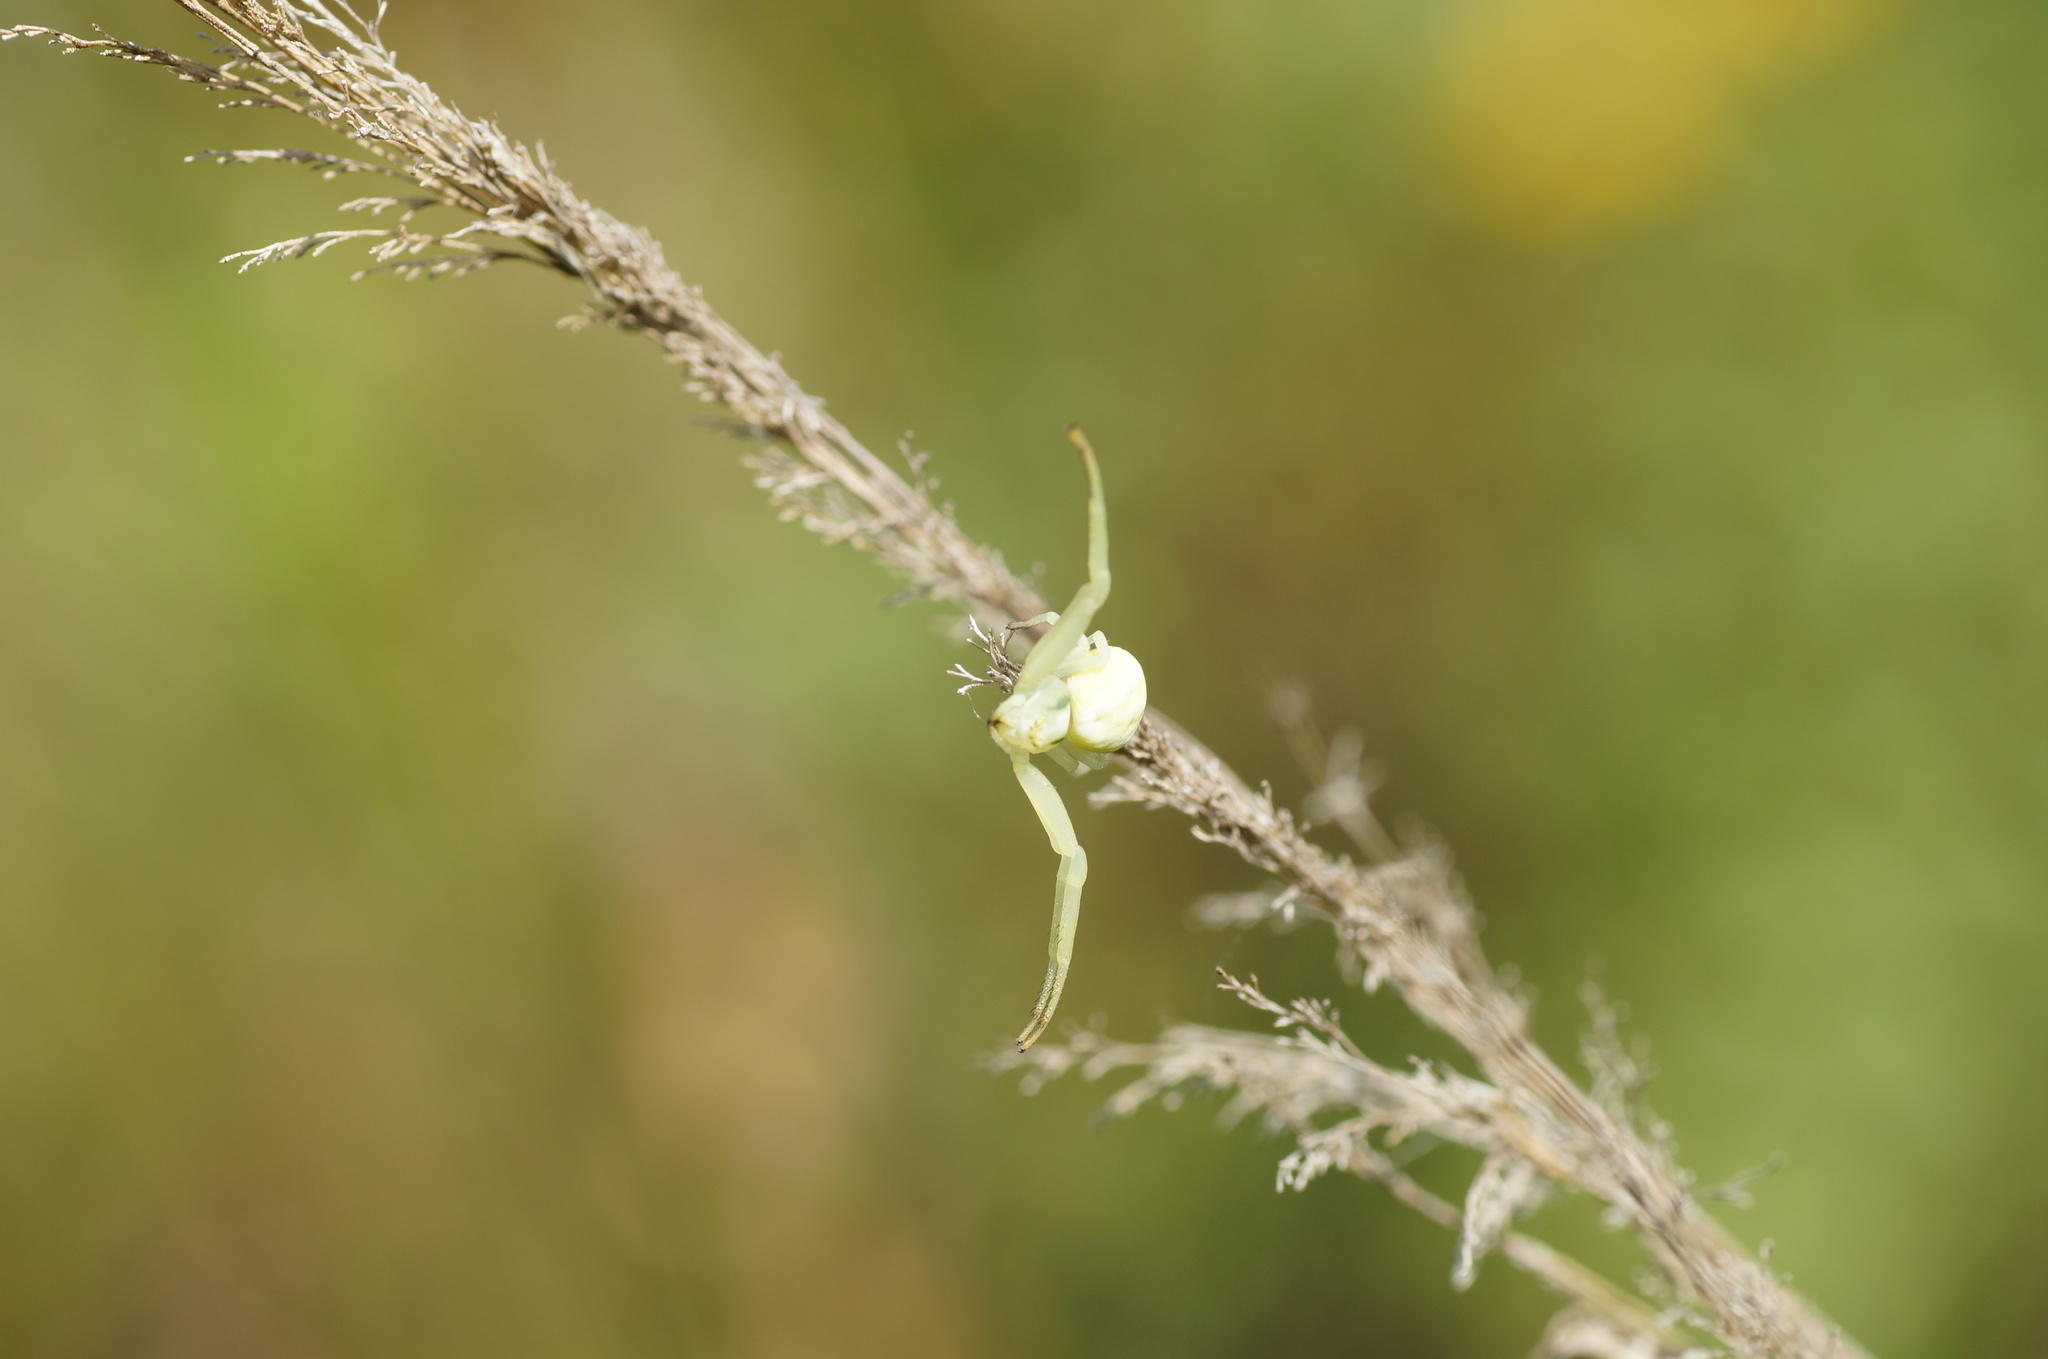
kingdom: Animalia
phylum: Arthropoda
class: Arachnida
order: Araneae
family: Thomisidae
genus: Misumena
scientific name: Misumena vatia
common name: Goldenrod crab spider
